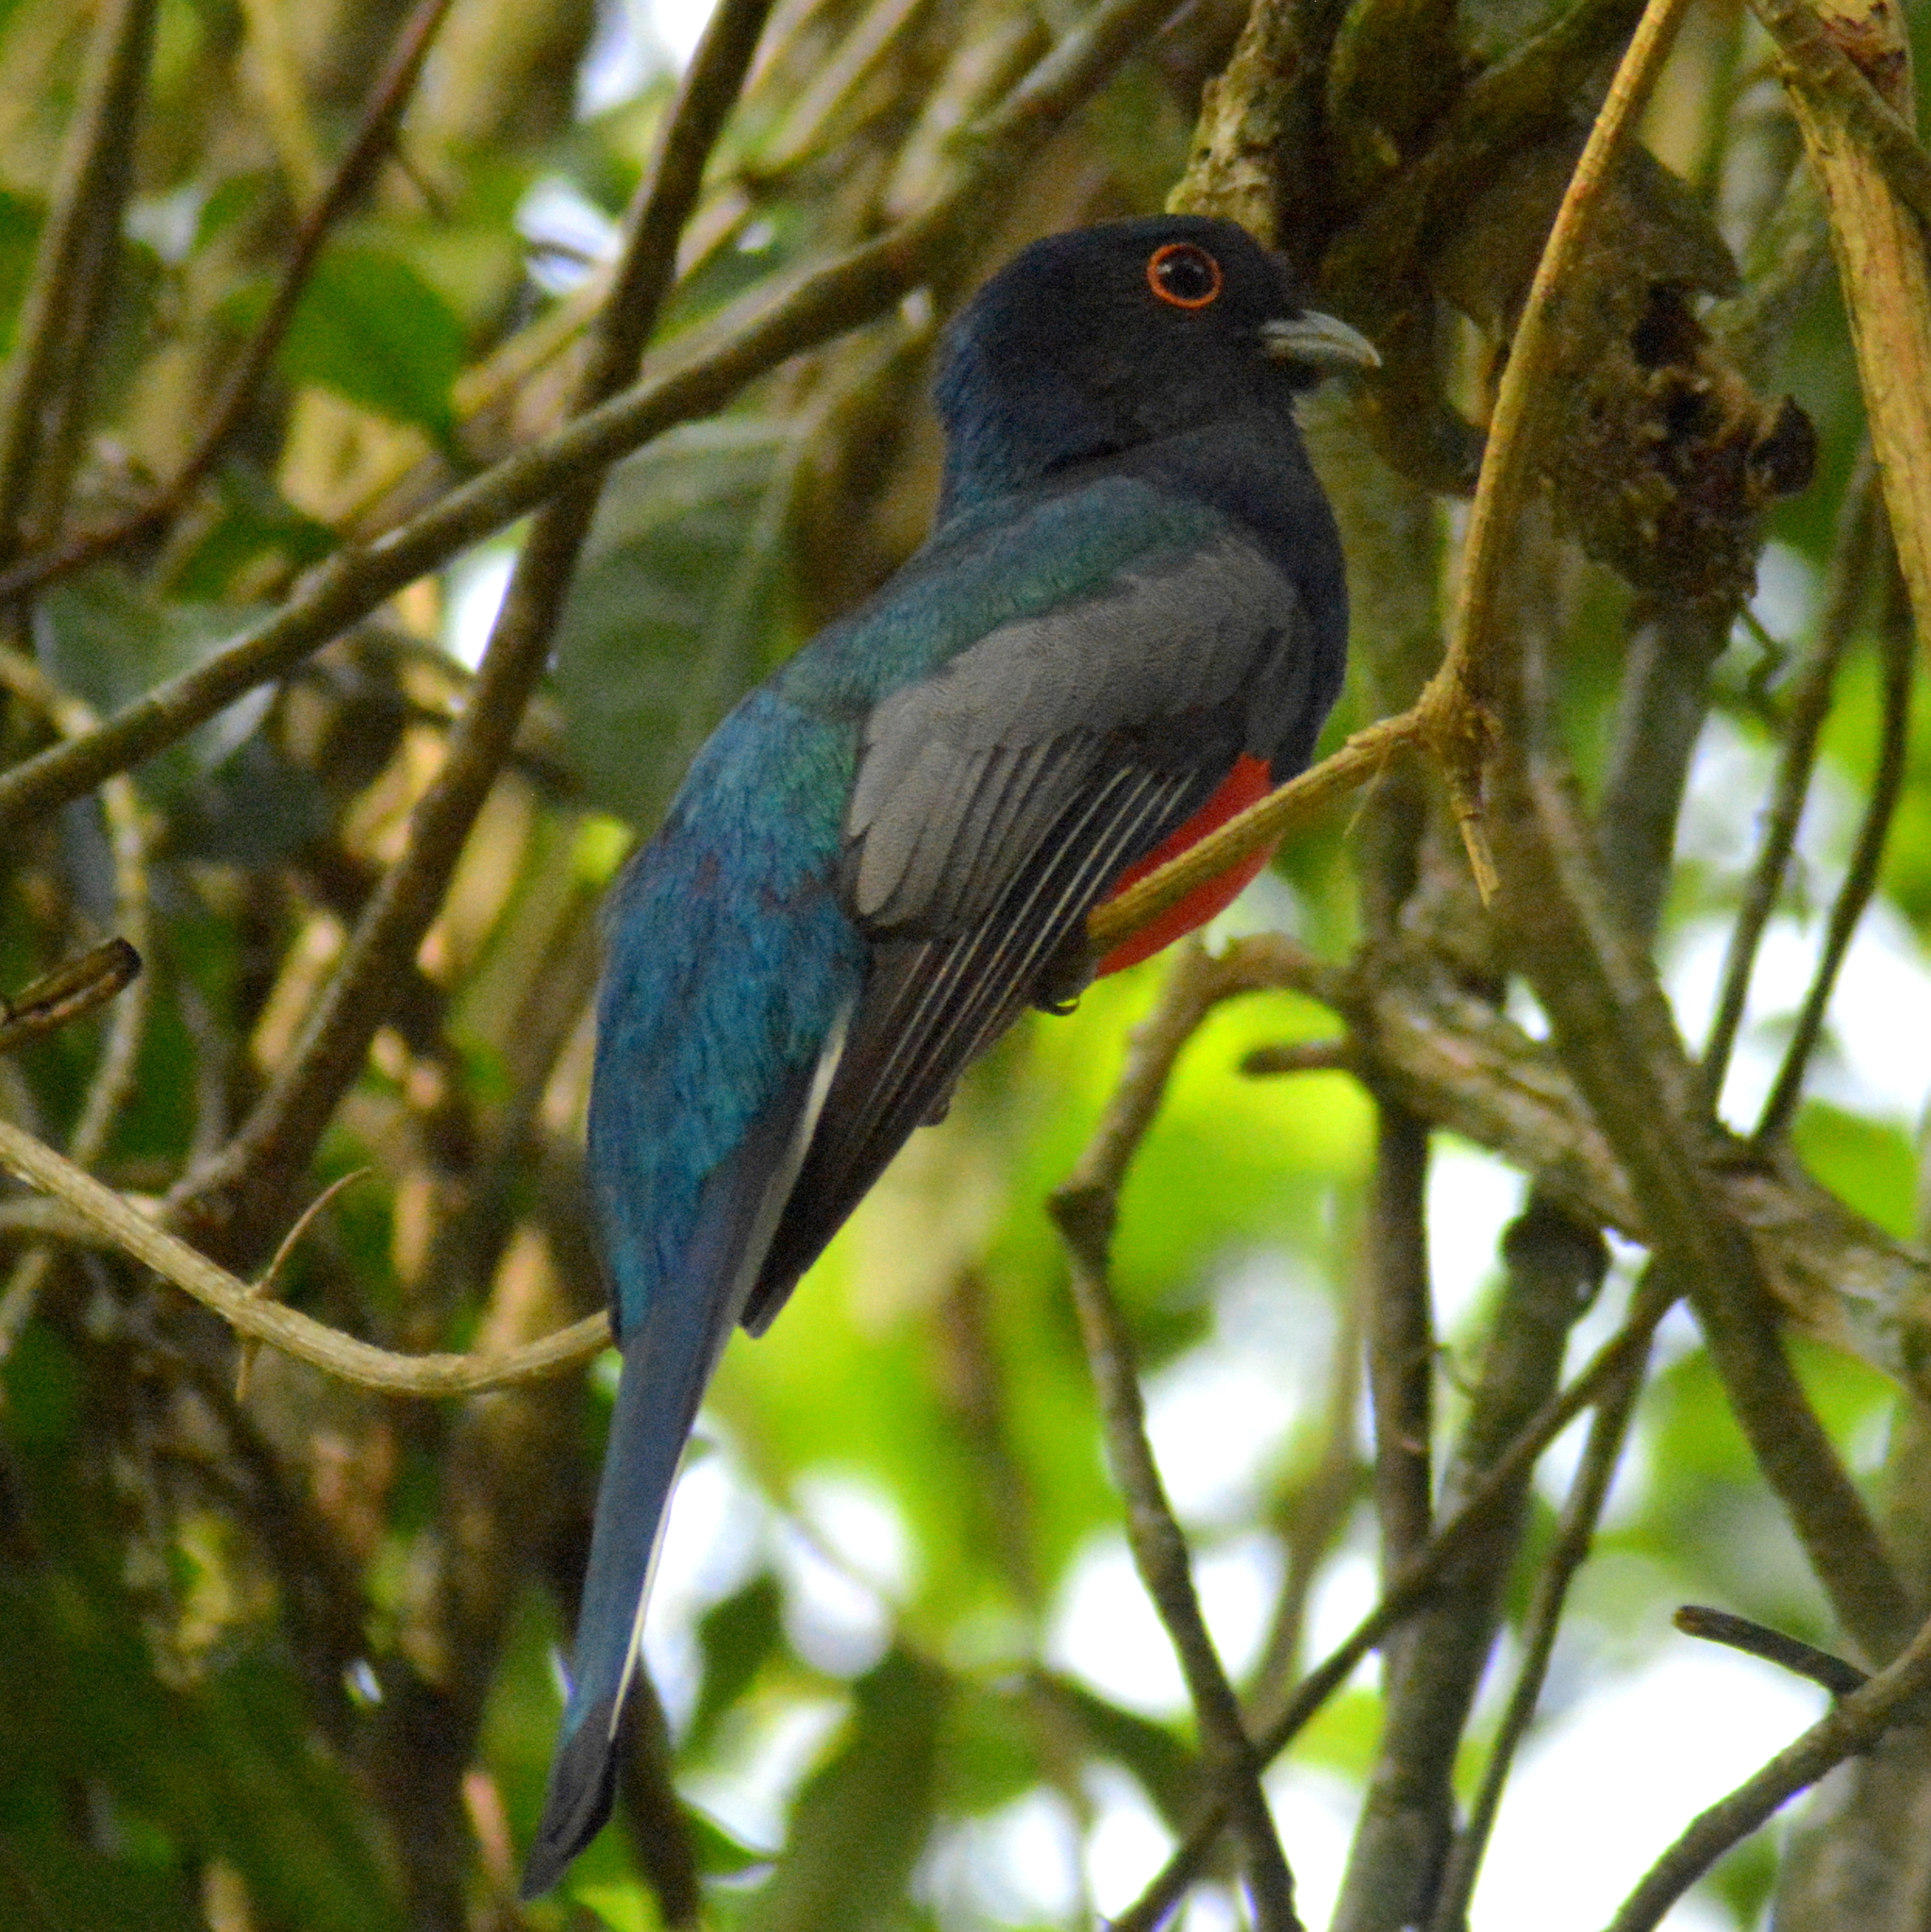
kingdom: Animalia
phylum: Chordata
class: Aves
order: Trogoniformes
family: Trogonidae
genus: Trogon
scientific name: Trogon surrucura
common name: Surucua trogon
